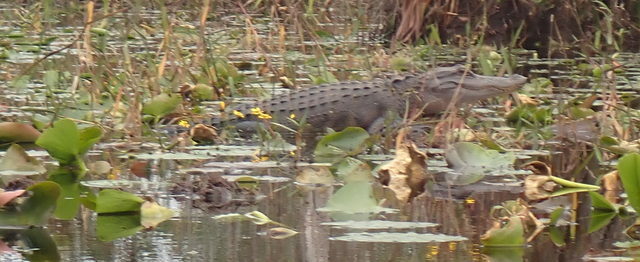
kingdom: Animalia
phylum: Chordata
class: Crocodylia
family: Alligatoridae
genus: Alligator
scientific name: Alligator mississippiensis
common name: American alligator
